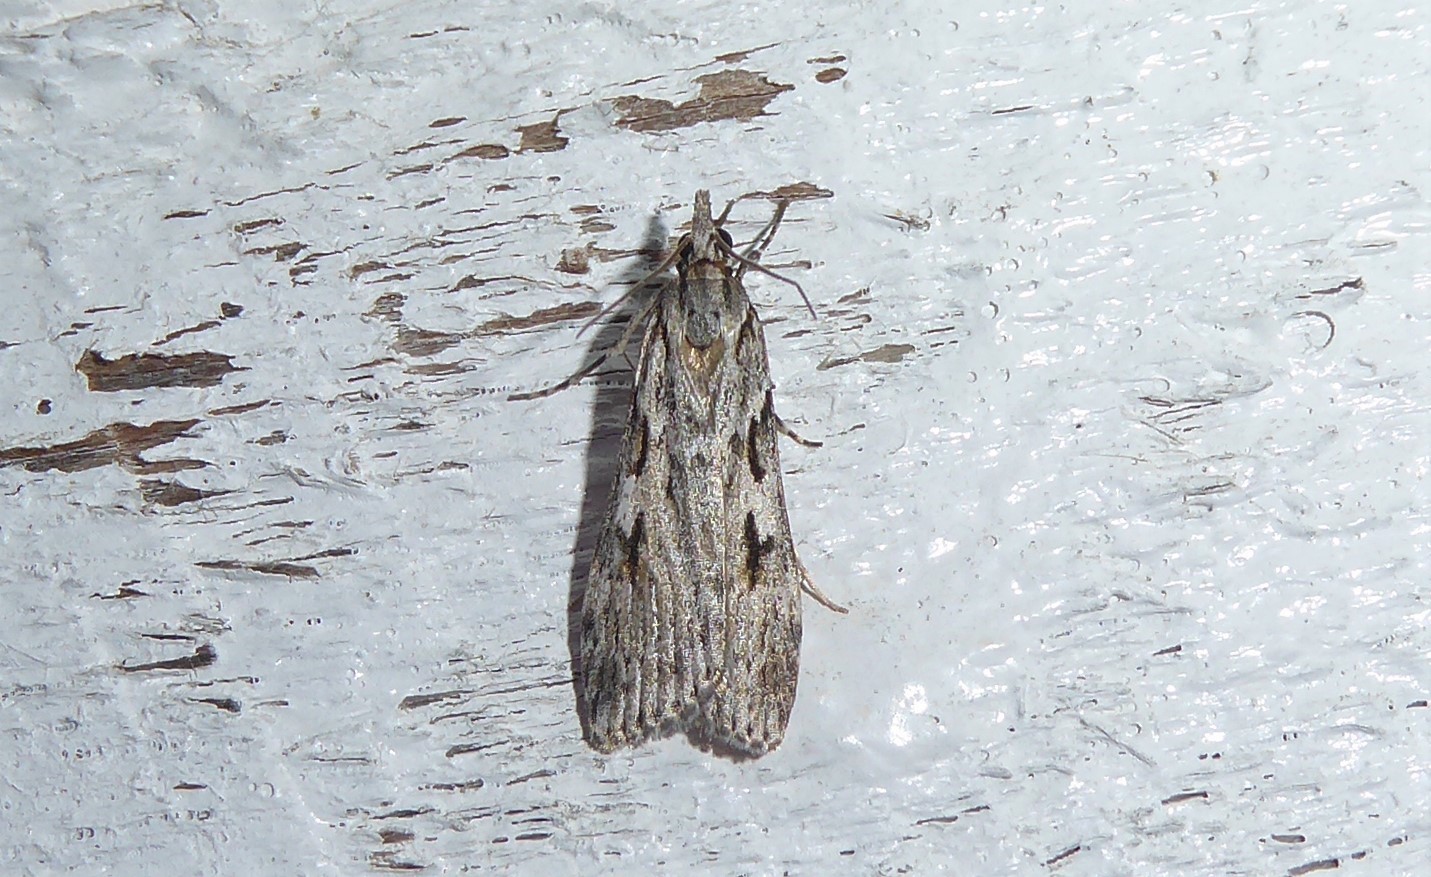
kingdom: Animalia
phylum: Arthropoda
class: Insecta
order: Lepidoptera
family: Crambidae
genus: Scoparia
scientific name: Scoparia halopis
